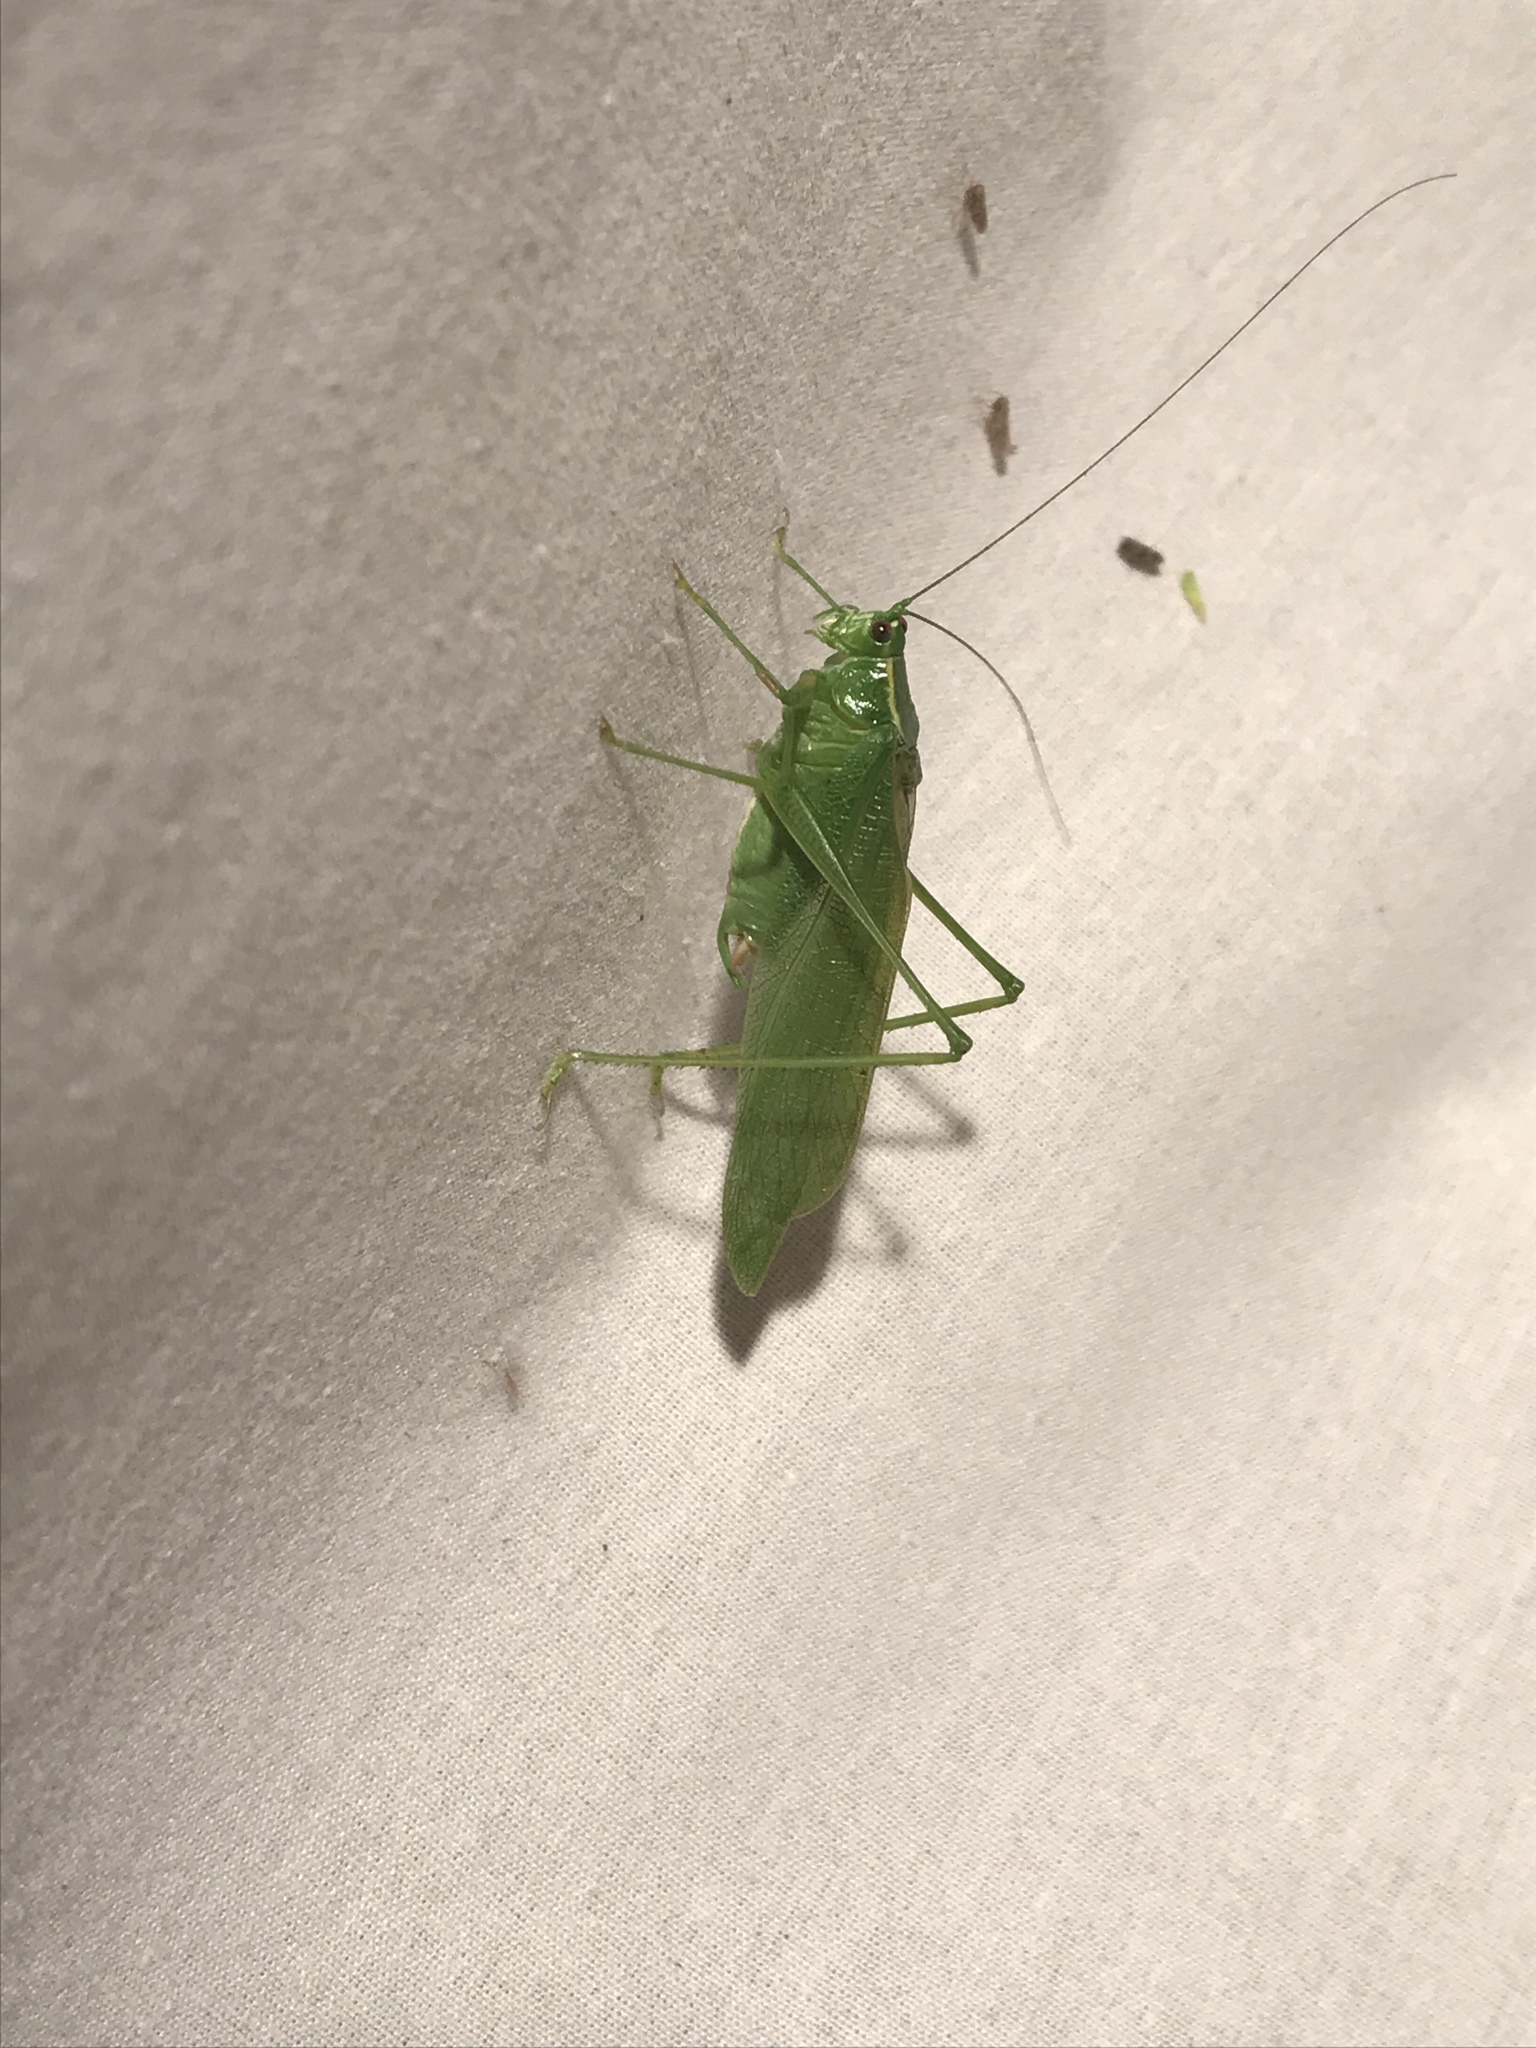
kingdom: Animalia
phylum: Arthropoda
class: Insecta
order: Orthoptera
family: Tettigoniidae
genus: Scudderia
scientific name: Scudderia septentrionalis
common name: Northern bush-katydid
